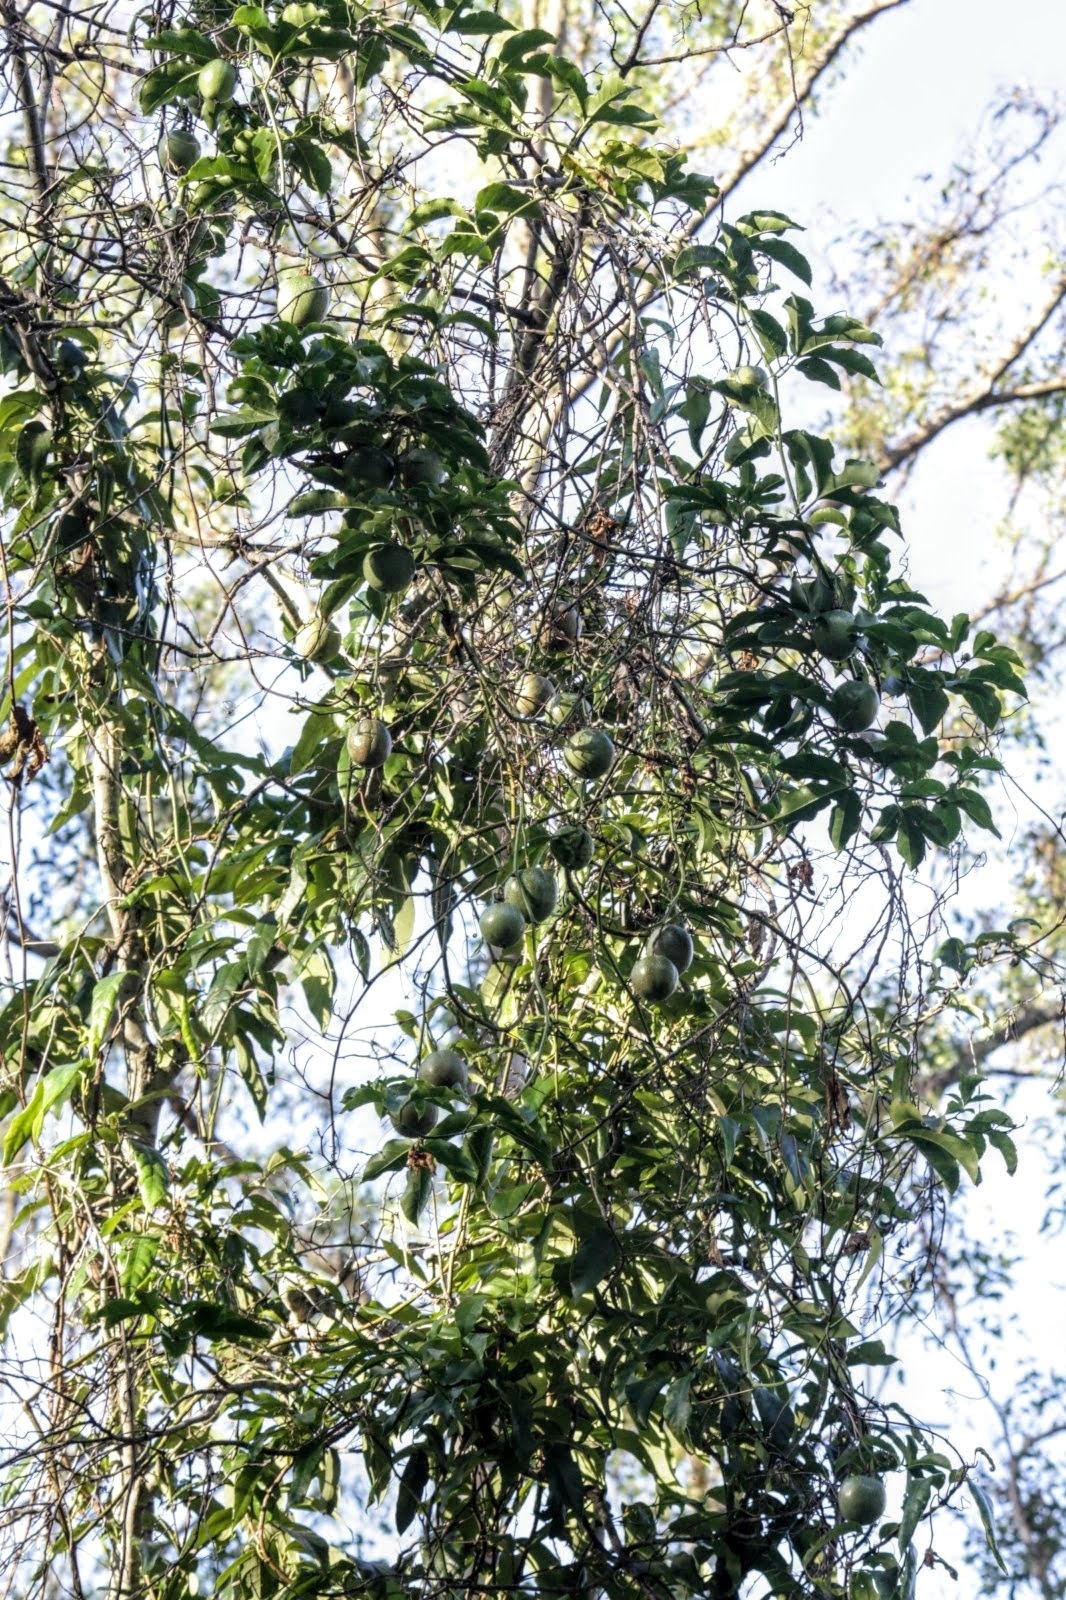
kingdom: Plantae
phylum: Tracheophyta
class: Magnoliopsida
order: Malpighiales
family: Passifloraceae
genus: Passiflora
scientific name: Passiflora edulis
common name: Purple granadilla
